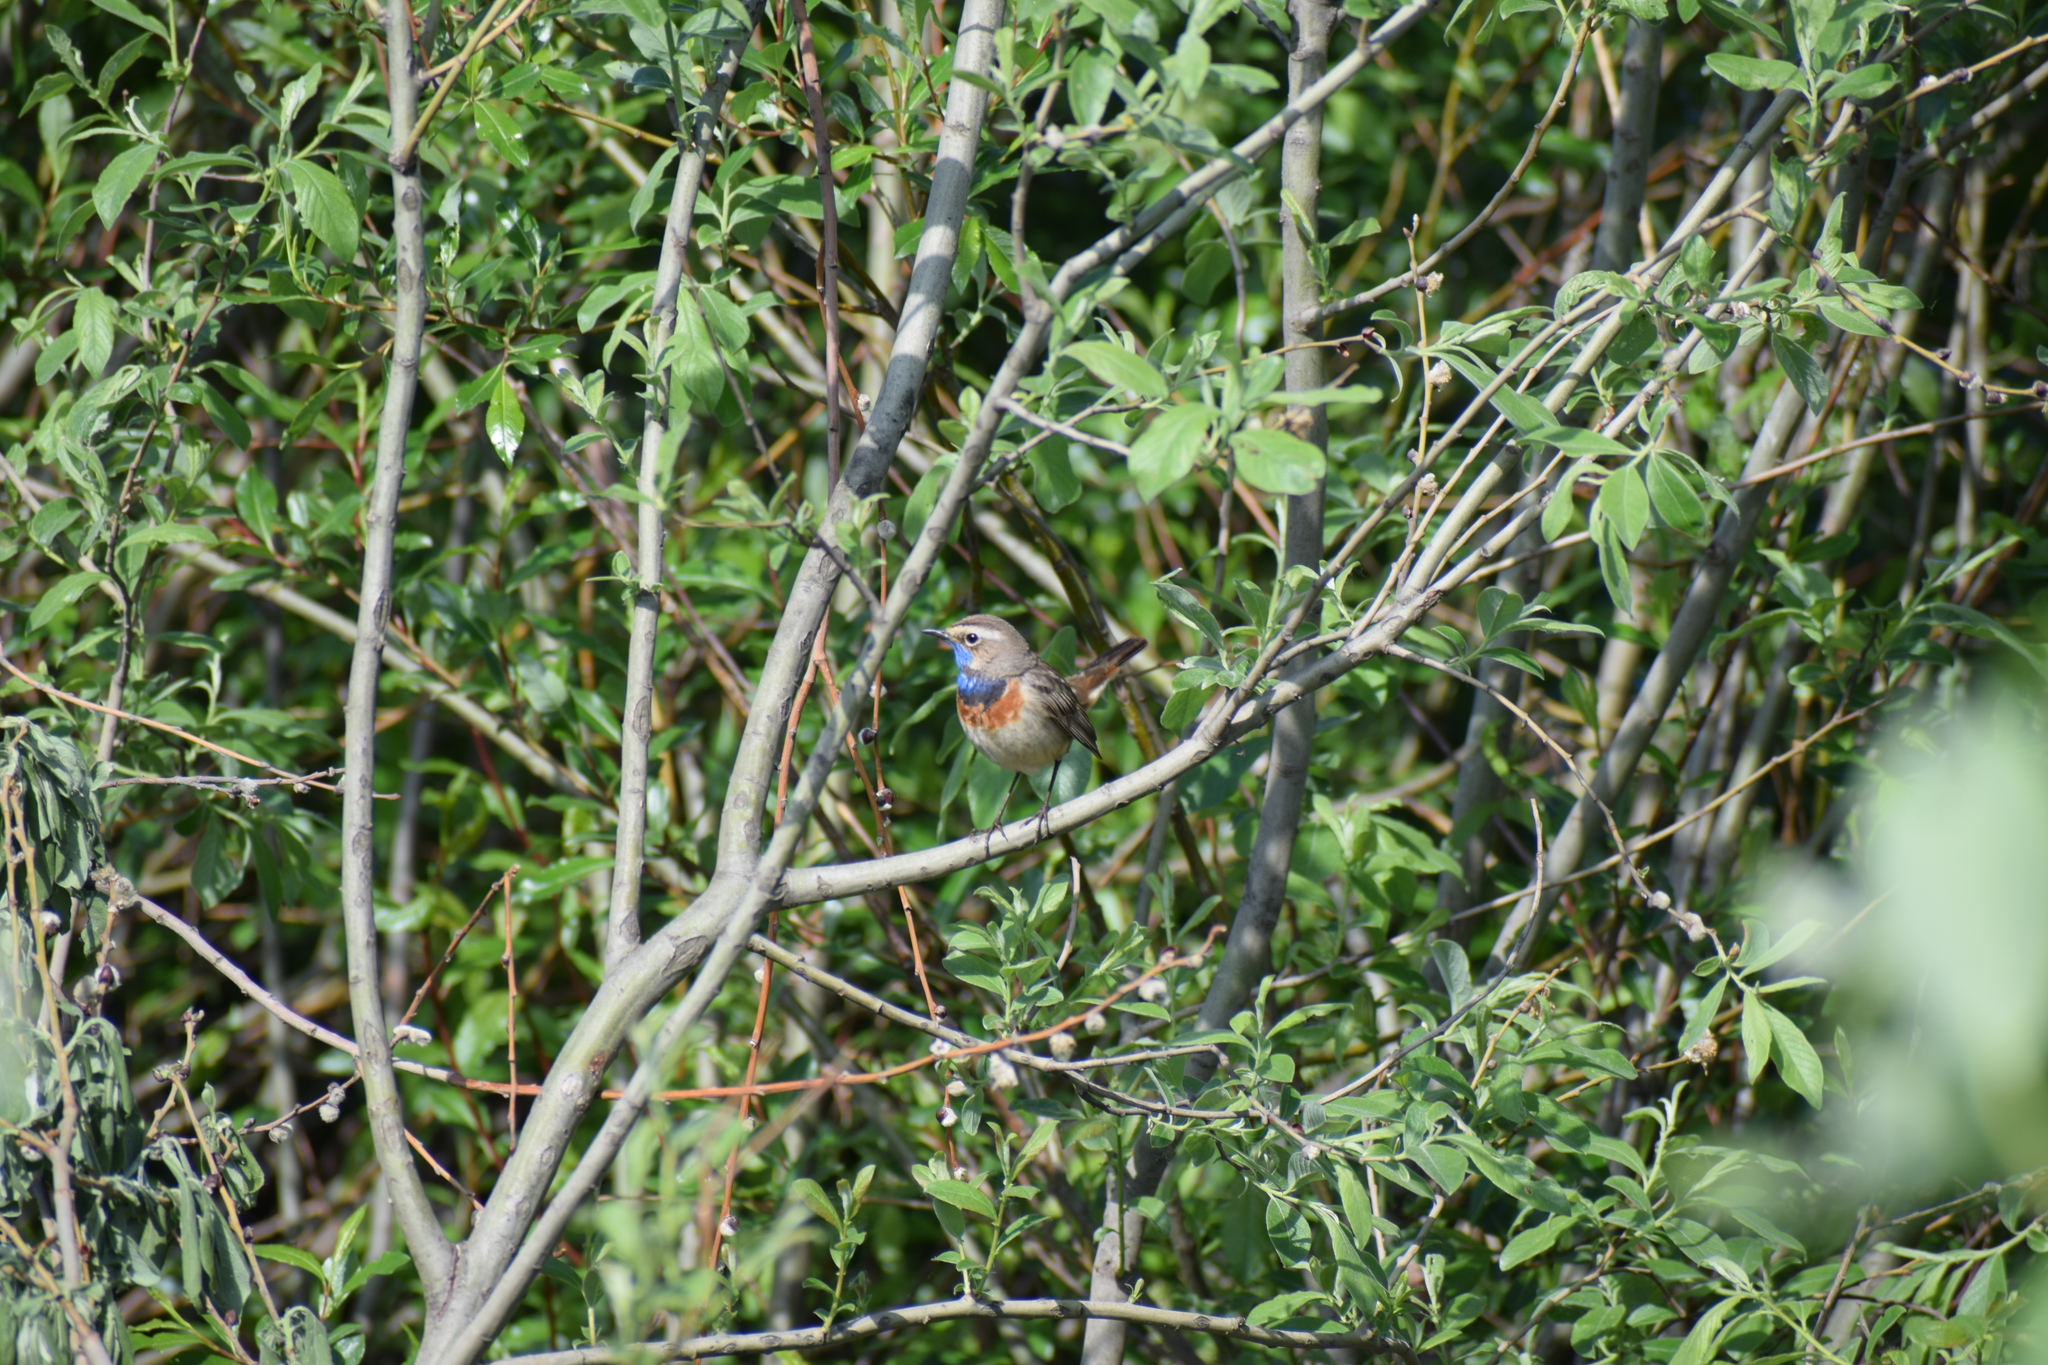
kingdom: Animalia
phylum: Chordata
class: Aves
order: Passeriformes
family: Muscicapidae
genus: Luscinia
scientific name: Luscinia svecica
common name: Bluethroat
